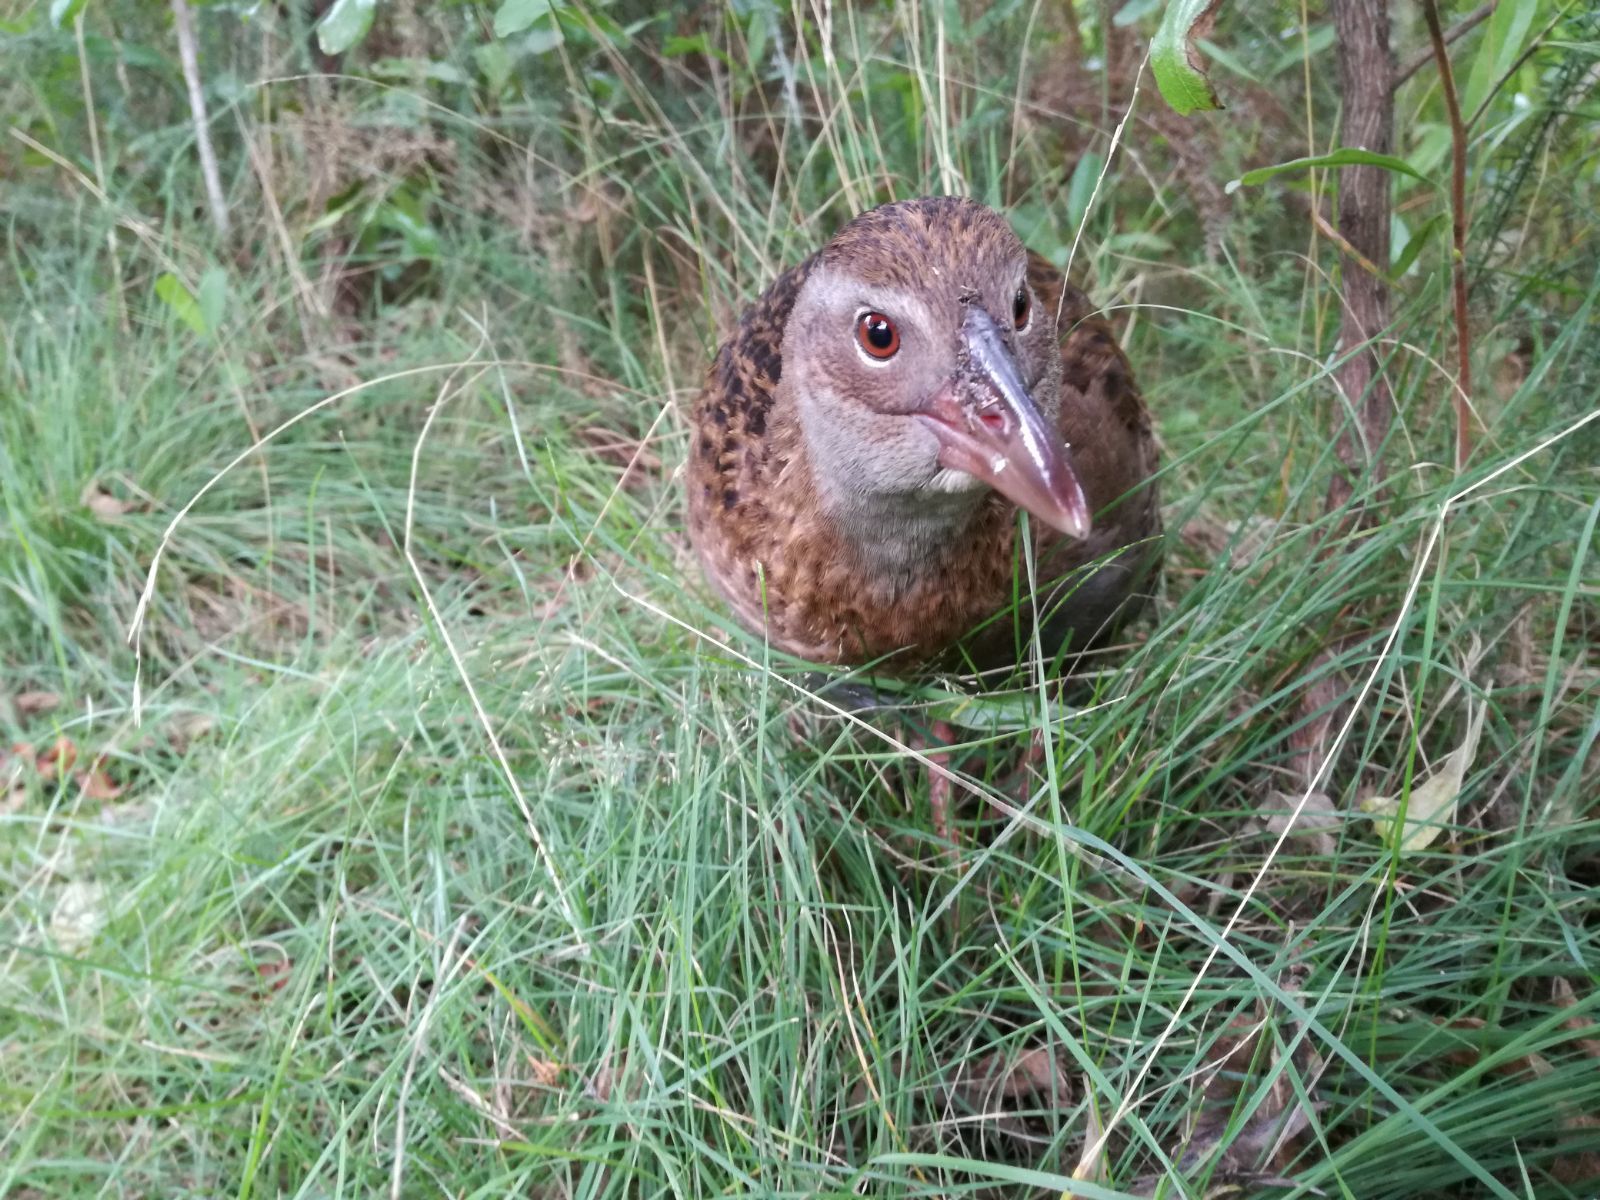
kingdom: Animalia
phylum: Chordata
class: Aves
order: Gruiformes
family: Rallidae
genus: Gallirallus
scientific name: Gallirallus australis
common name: Weka
